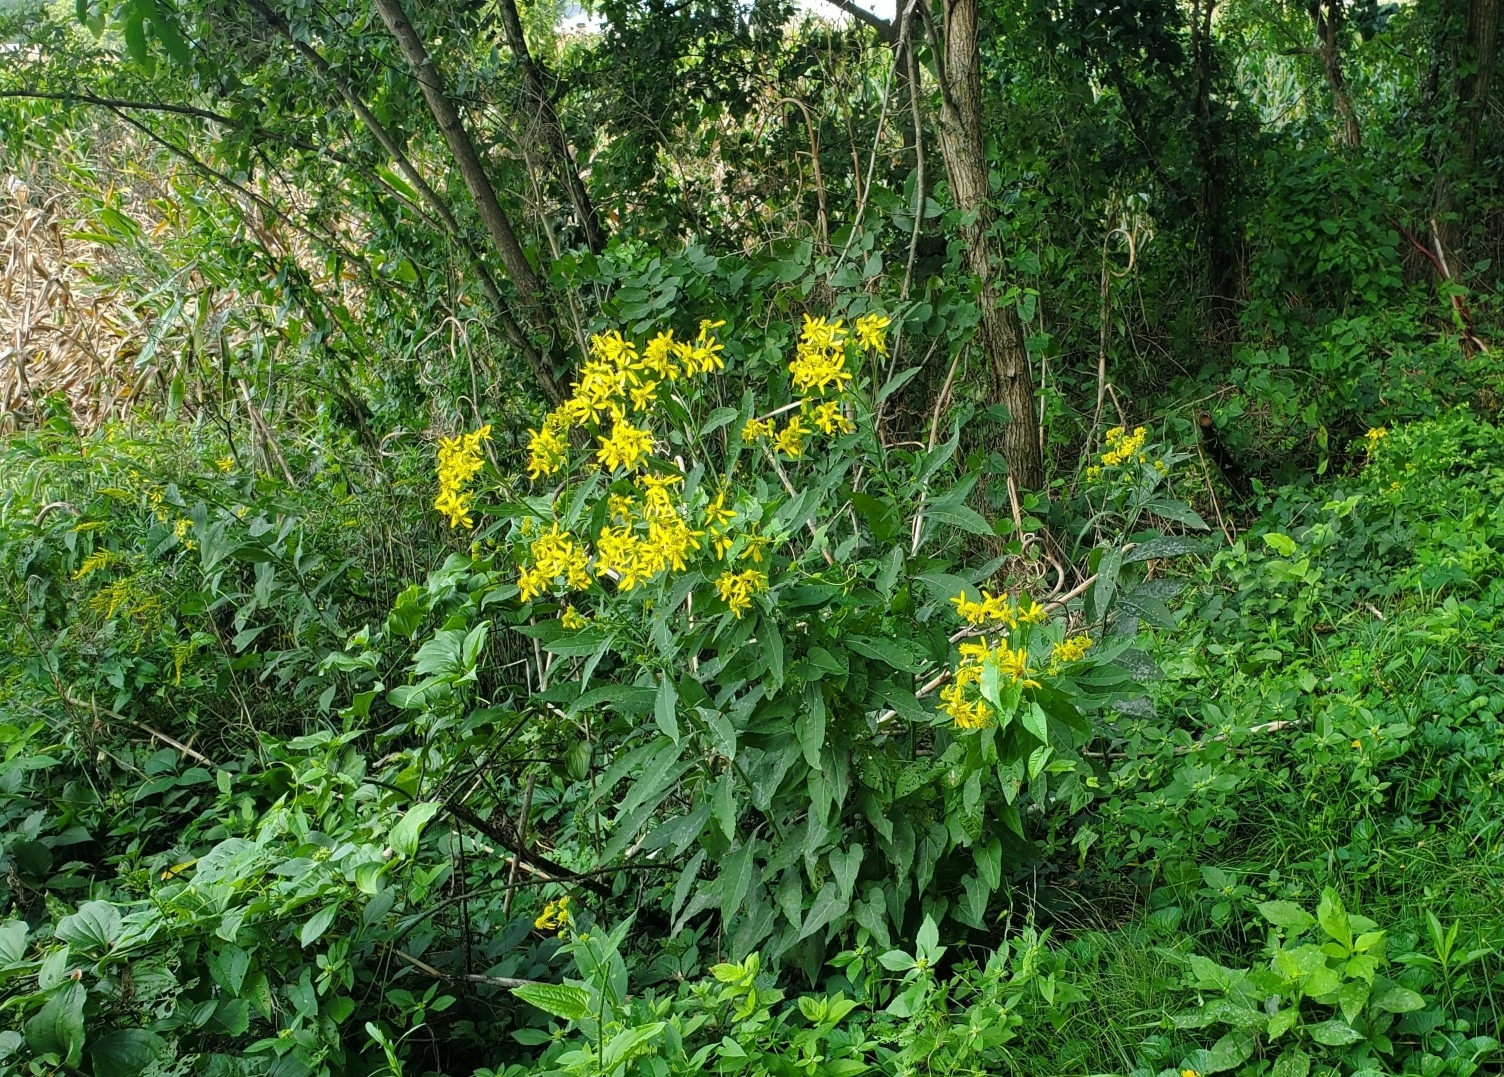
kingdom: Plantae
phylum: Tracheophyta
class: Magnoliopsida
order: Asterales
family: Asteraceae
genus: Verbesina
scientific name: Verbesina alternifolia
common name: Wingstem
